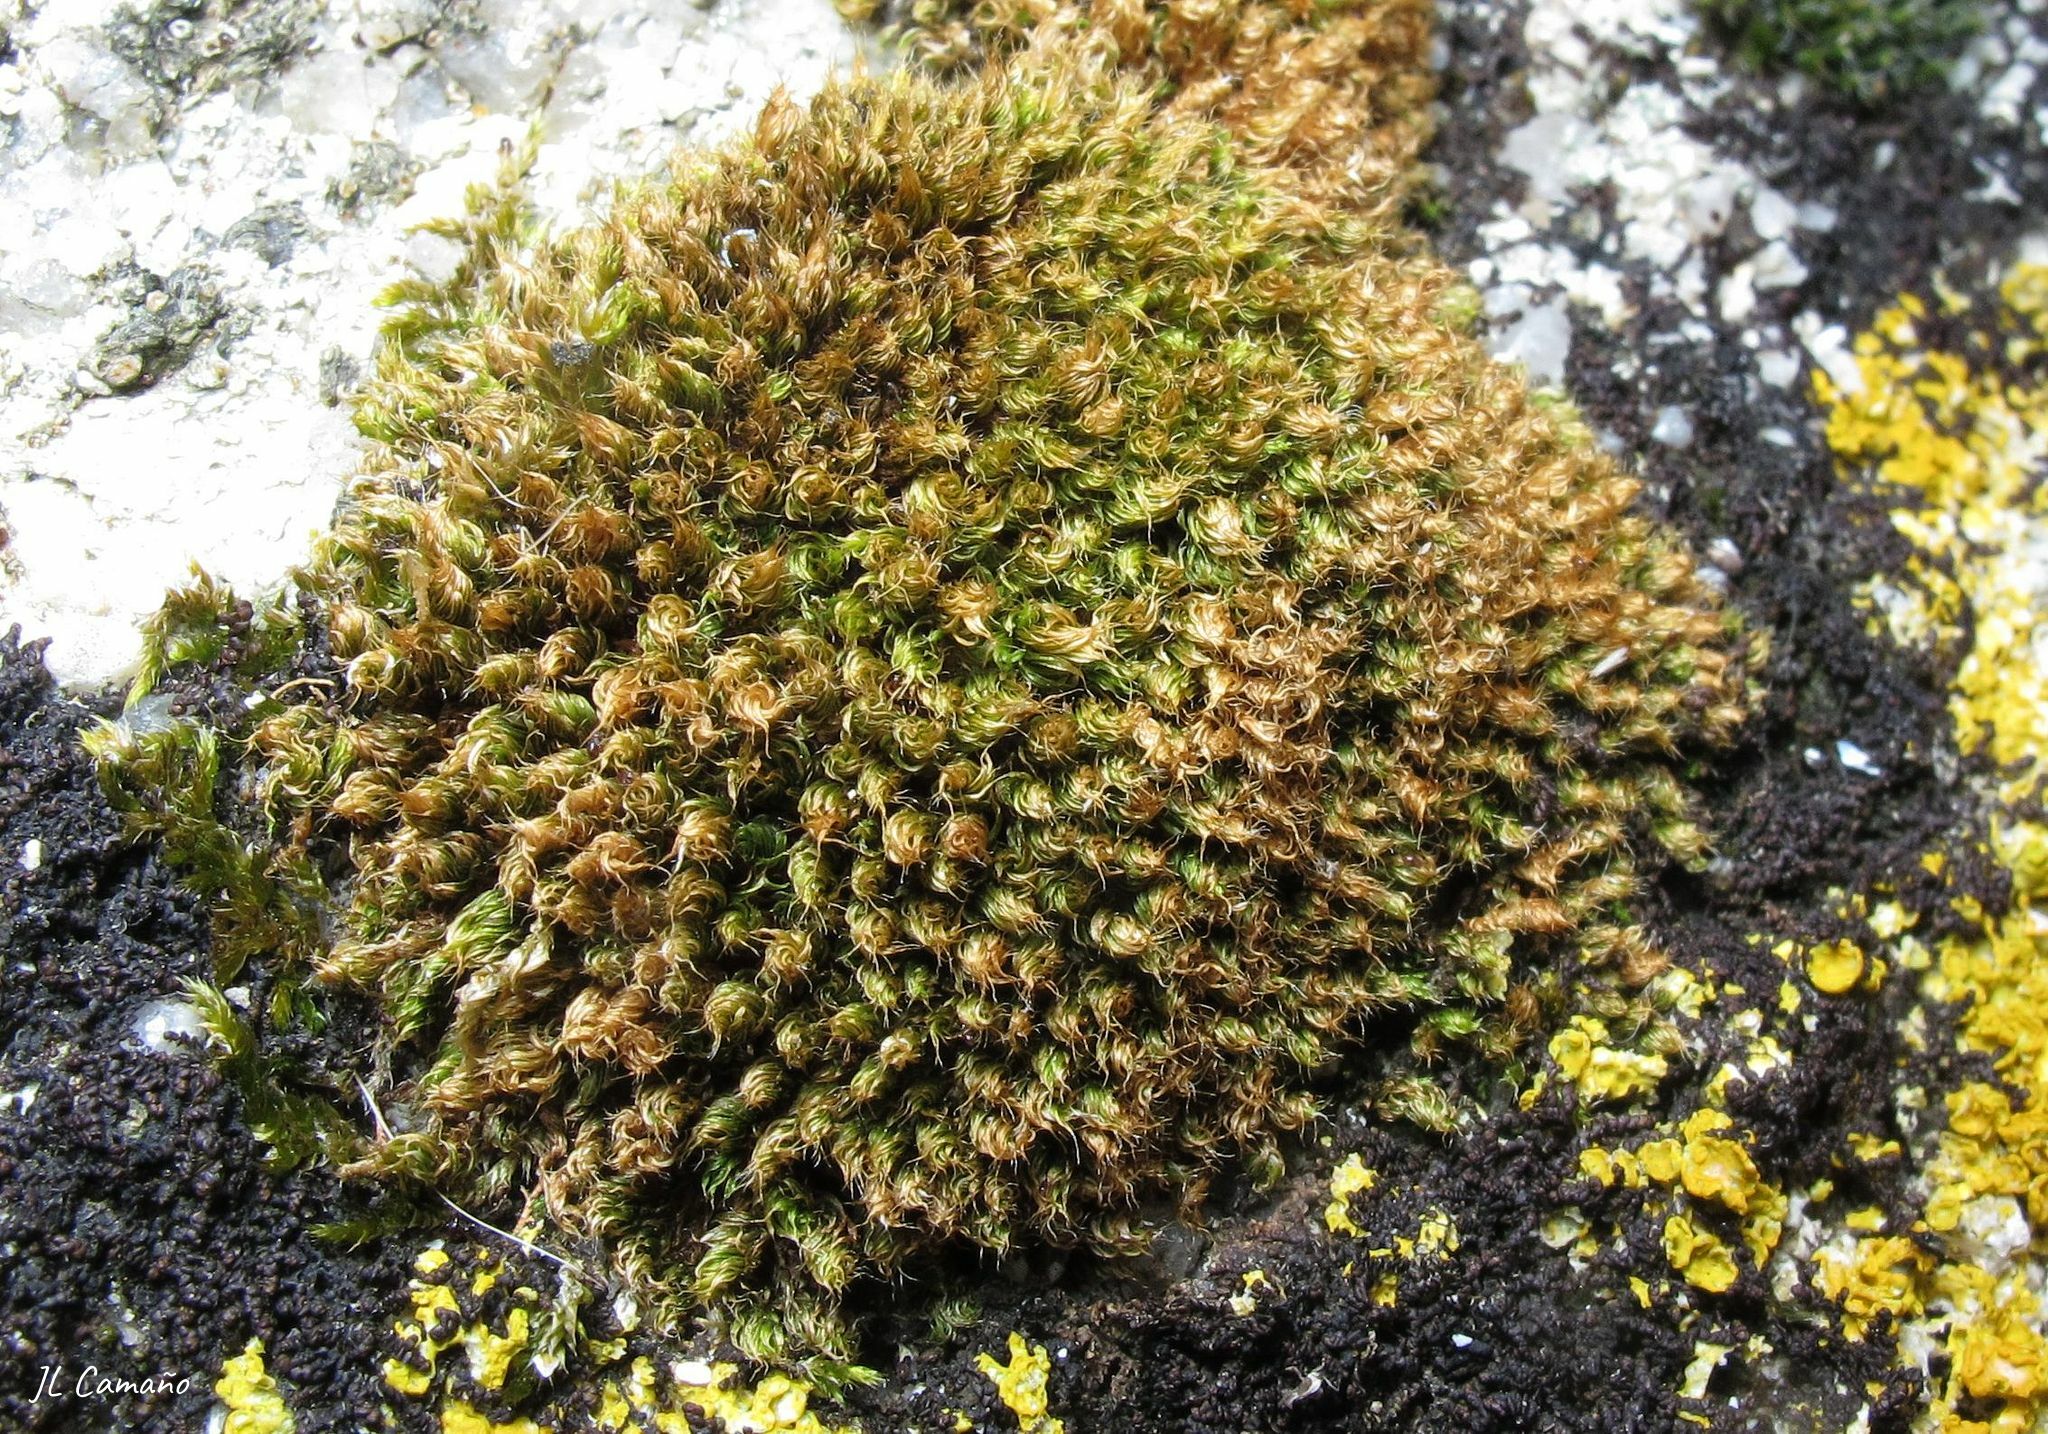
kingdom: Plantae
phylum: Bryophyta
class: Bryopsida
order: Bryales
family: Bryaceae
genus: Rosulabryum
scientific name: Rosulabryum capillare
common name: Capillary thread-moss
